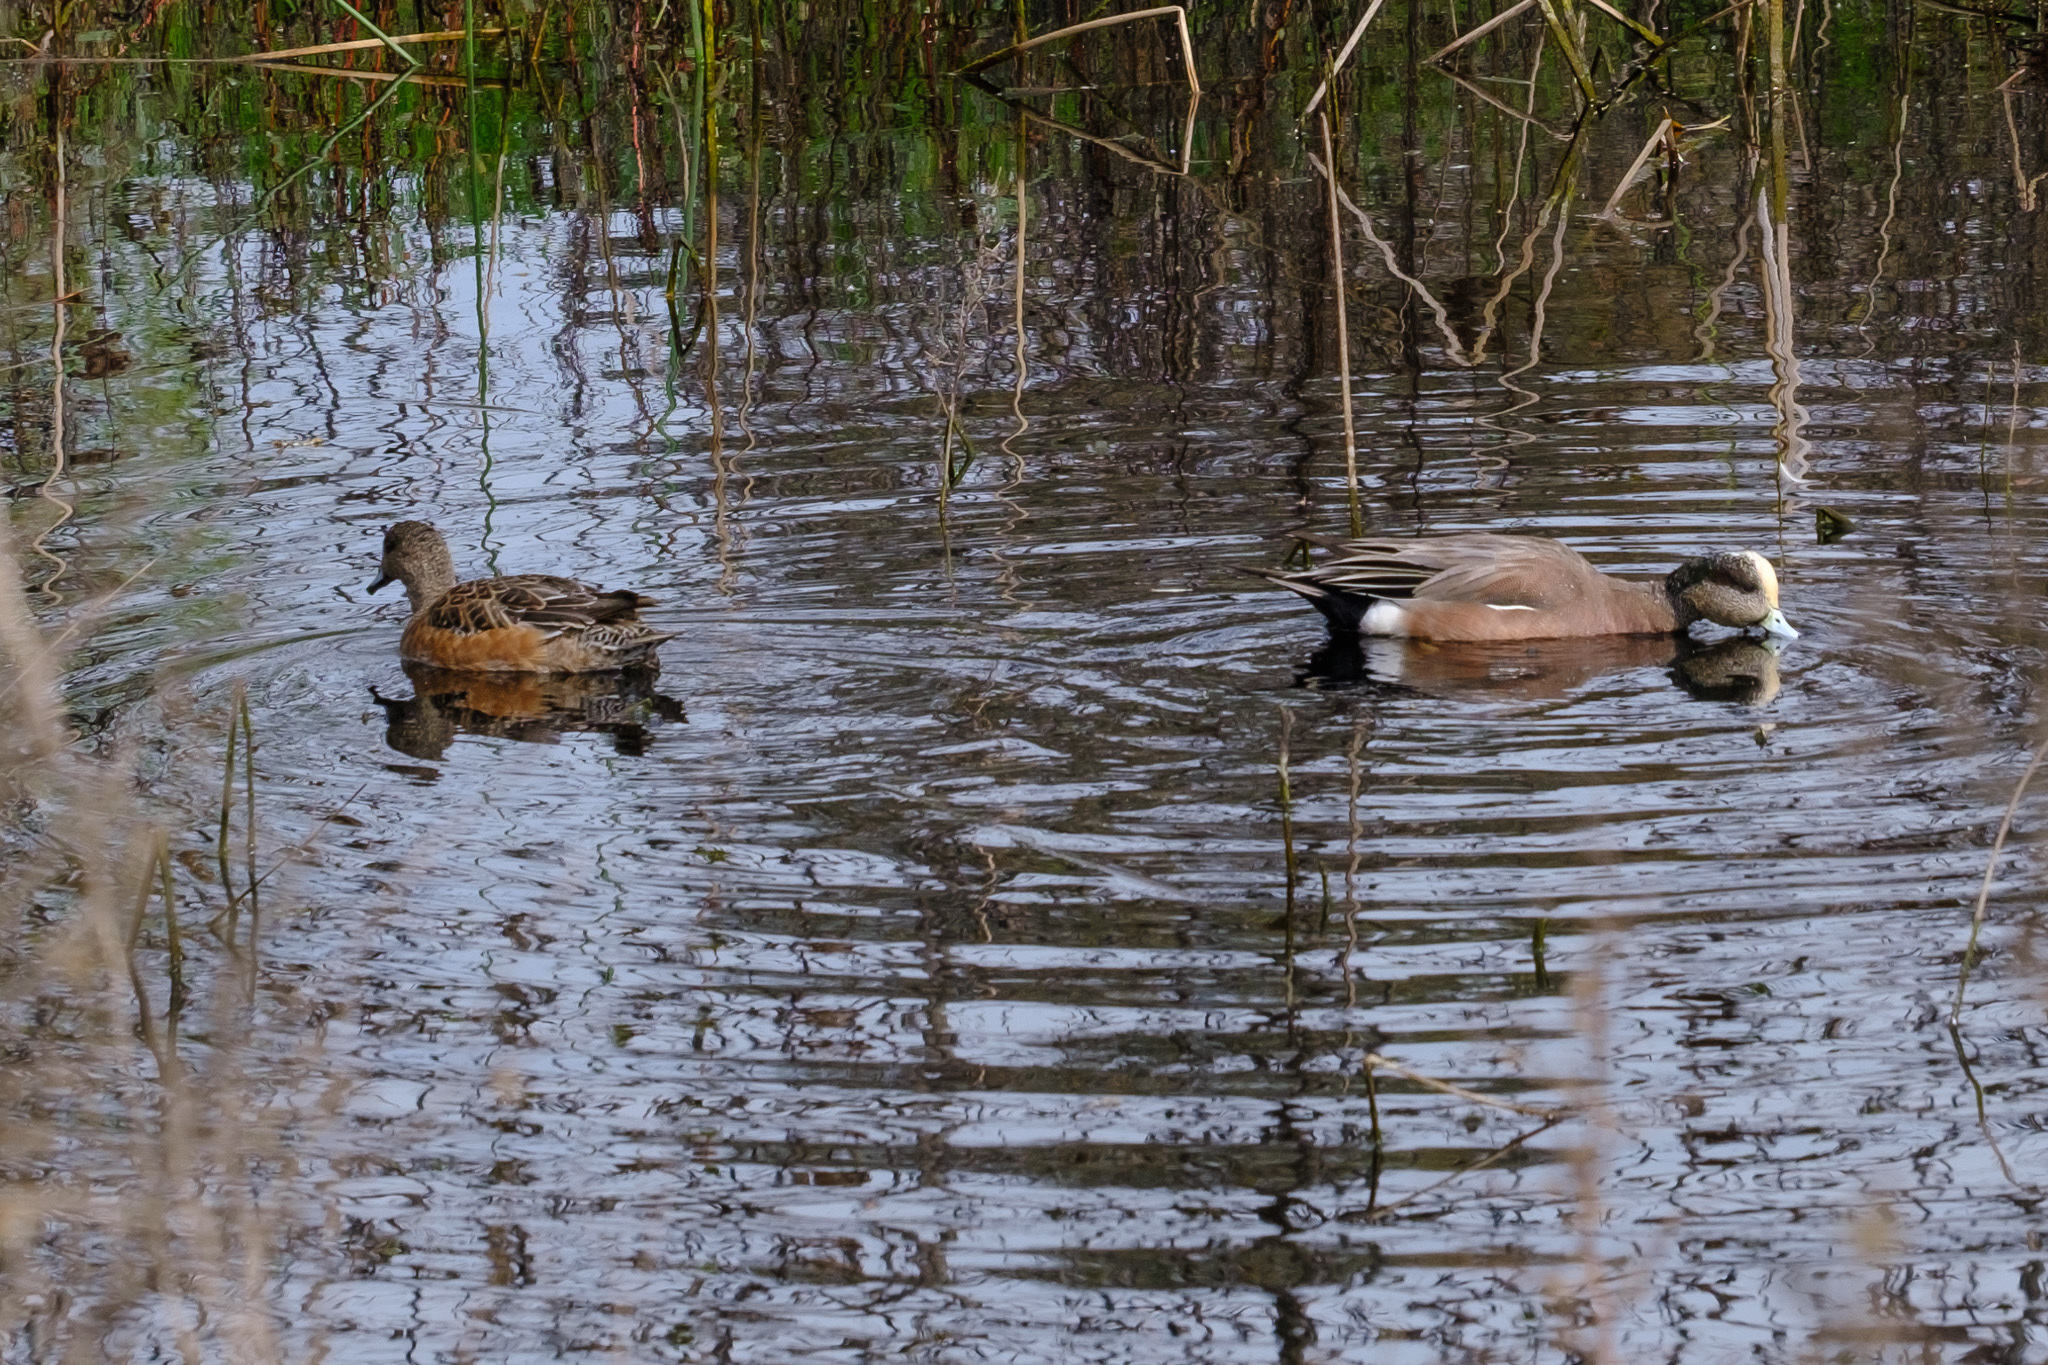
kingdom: Animalia
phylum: Chordata
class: Aves
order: Anseriformes
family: Anatidae
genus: Mareca
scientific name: Mareca americana
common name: American wigeon
